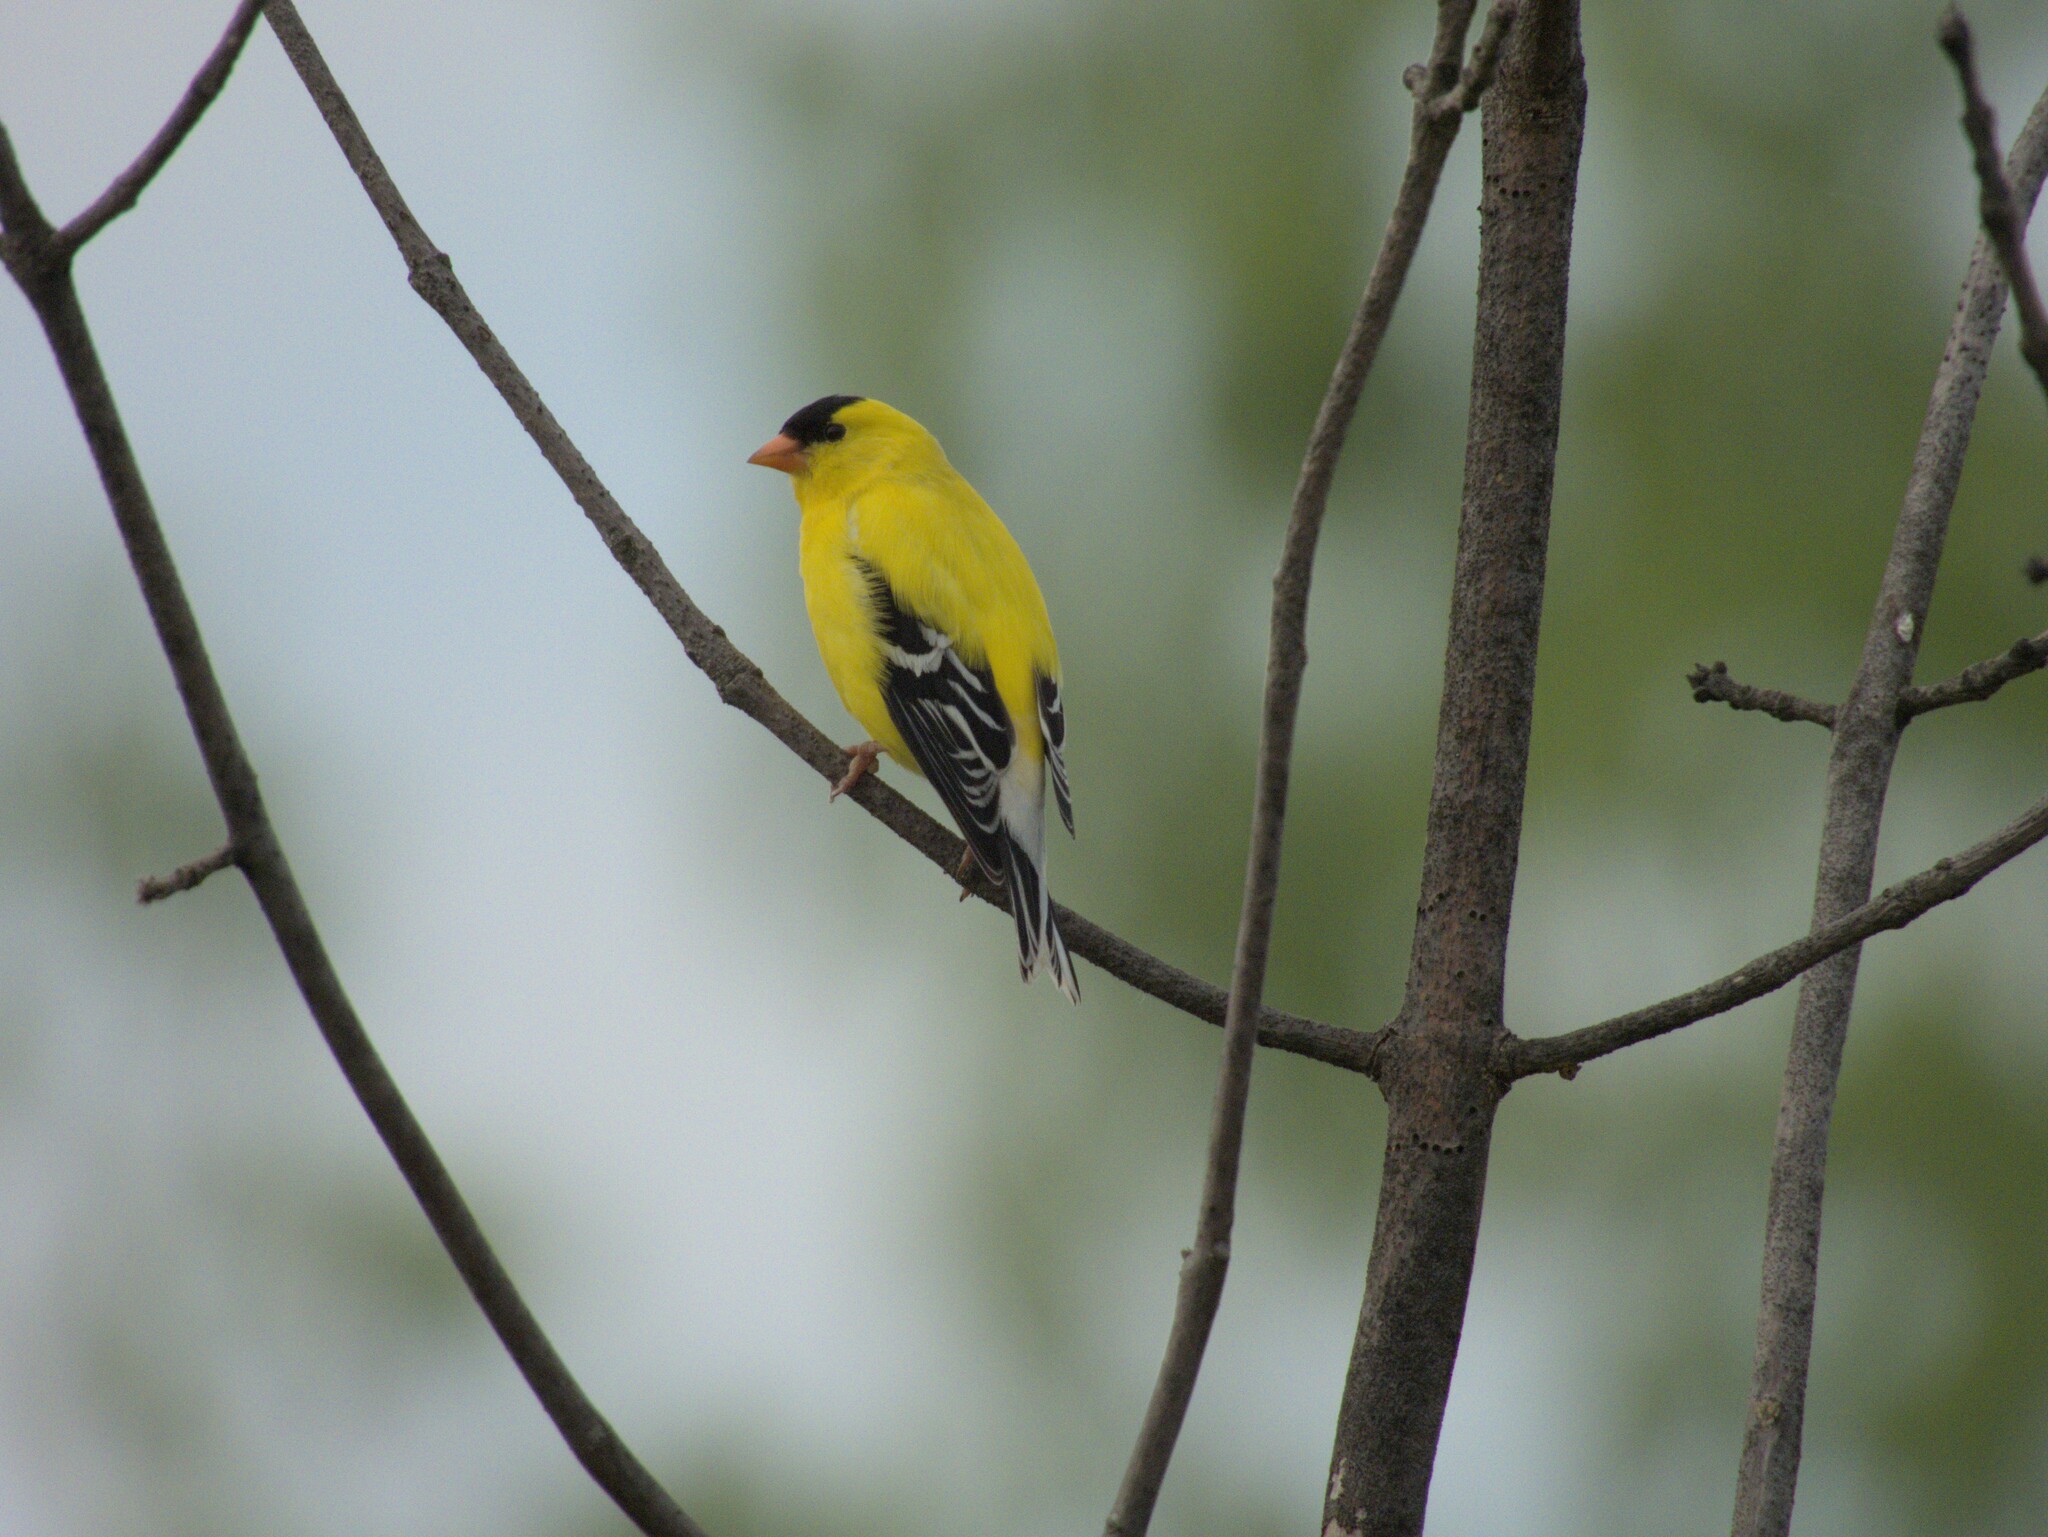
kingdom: Animalia
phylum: Chordata
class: Aves
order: Passeriformes
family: Fringillidae
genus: Spinus
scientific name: Spinus tristis
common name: American goldfinch
